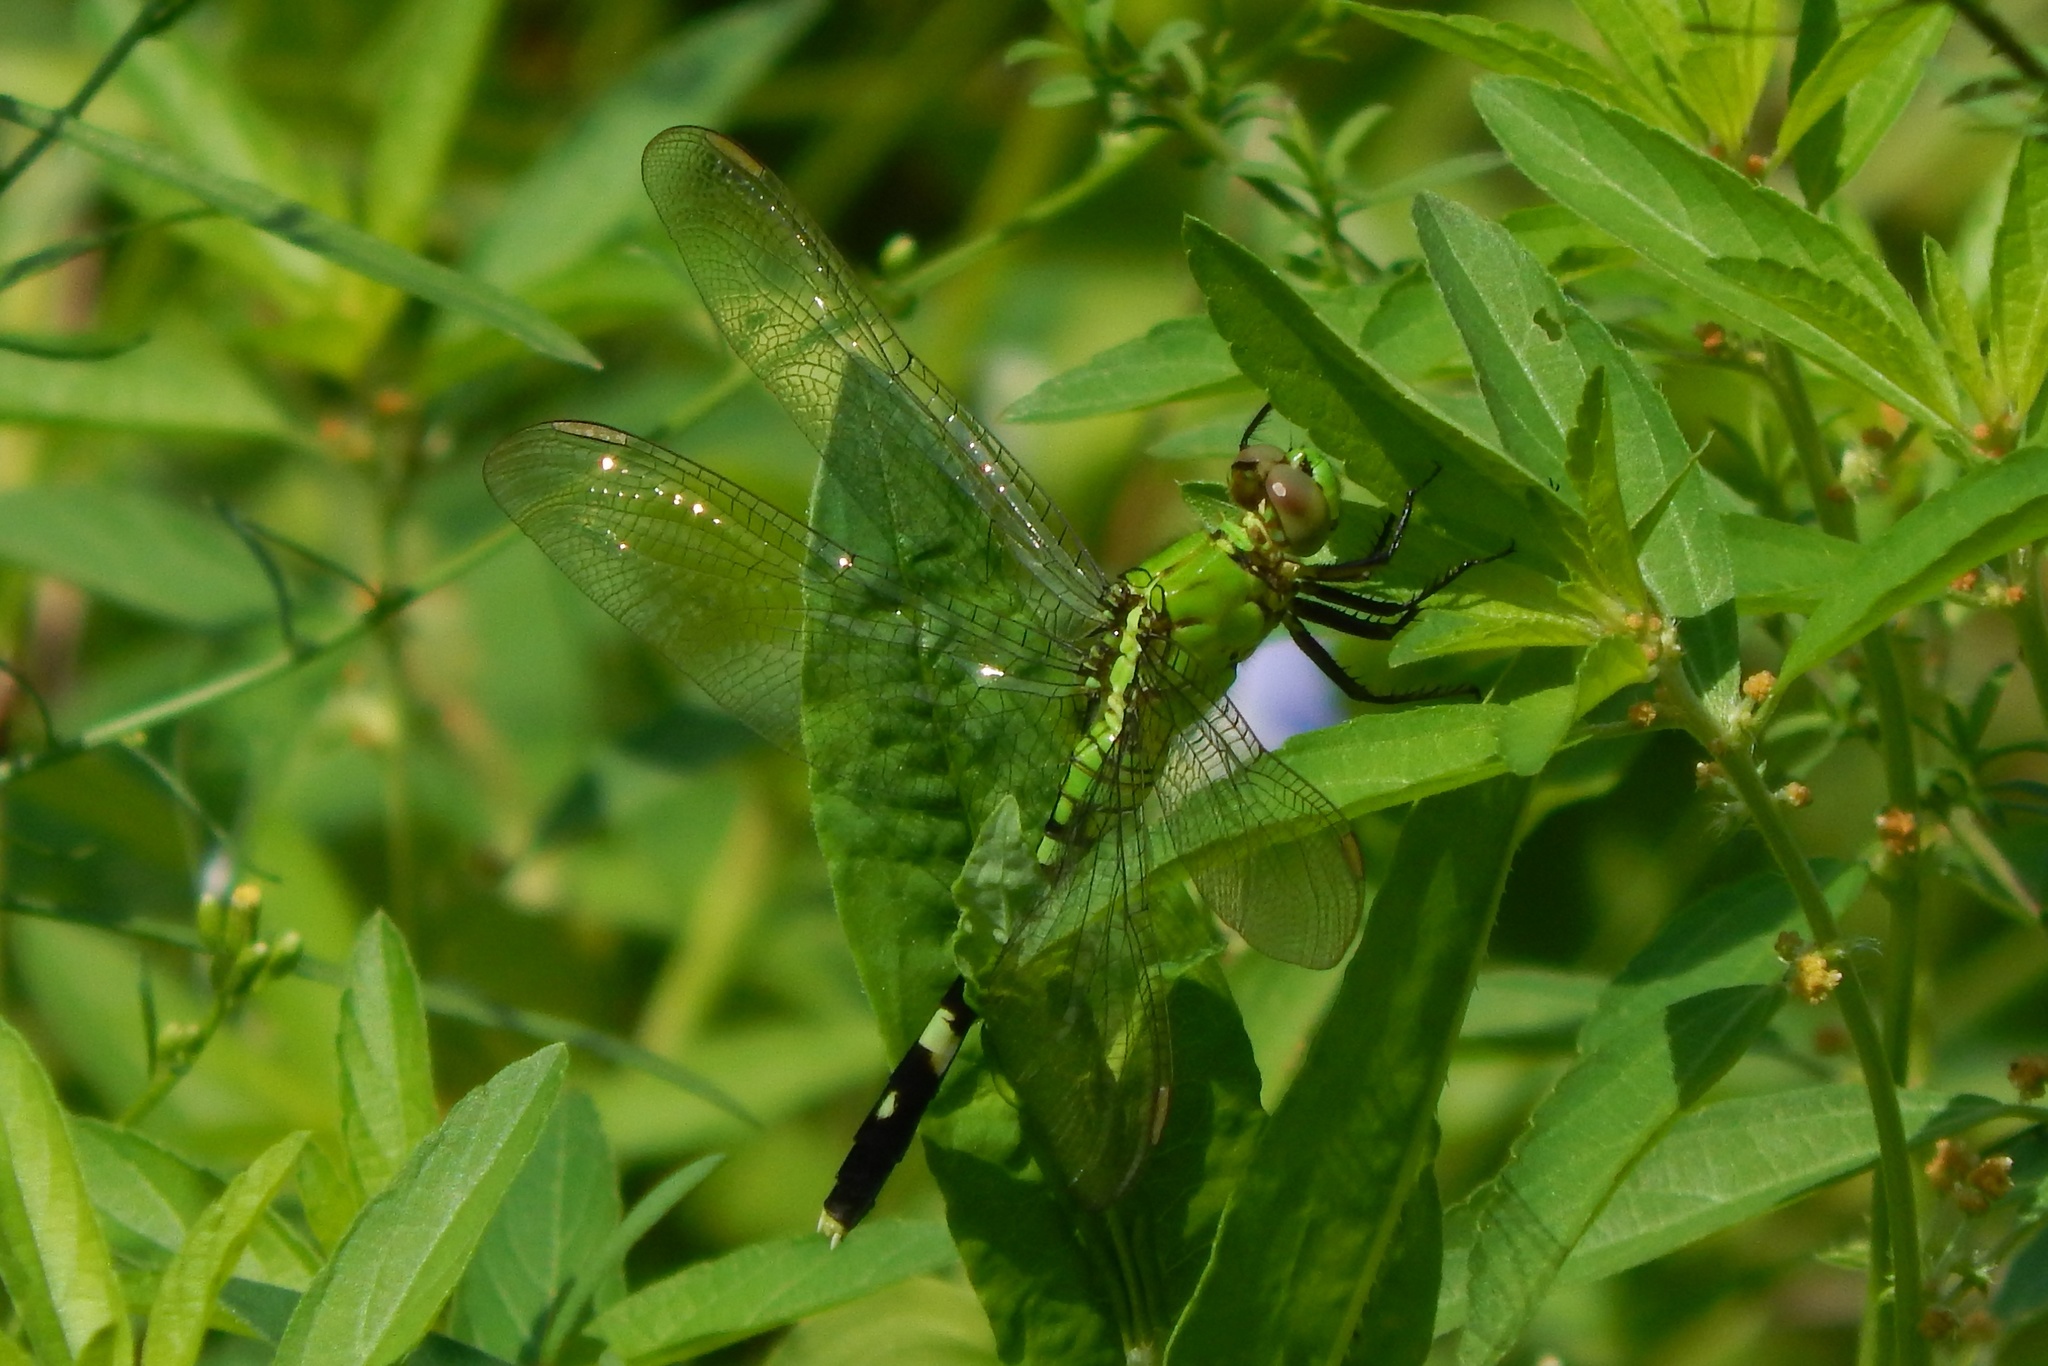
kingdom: Animalia
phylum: Arthropoda
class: Insecta
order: Odonata
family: Libellulidae
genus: Erythemis
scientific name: Erythemis simplicicollis
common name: Eastern pondhawk
